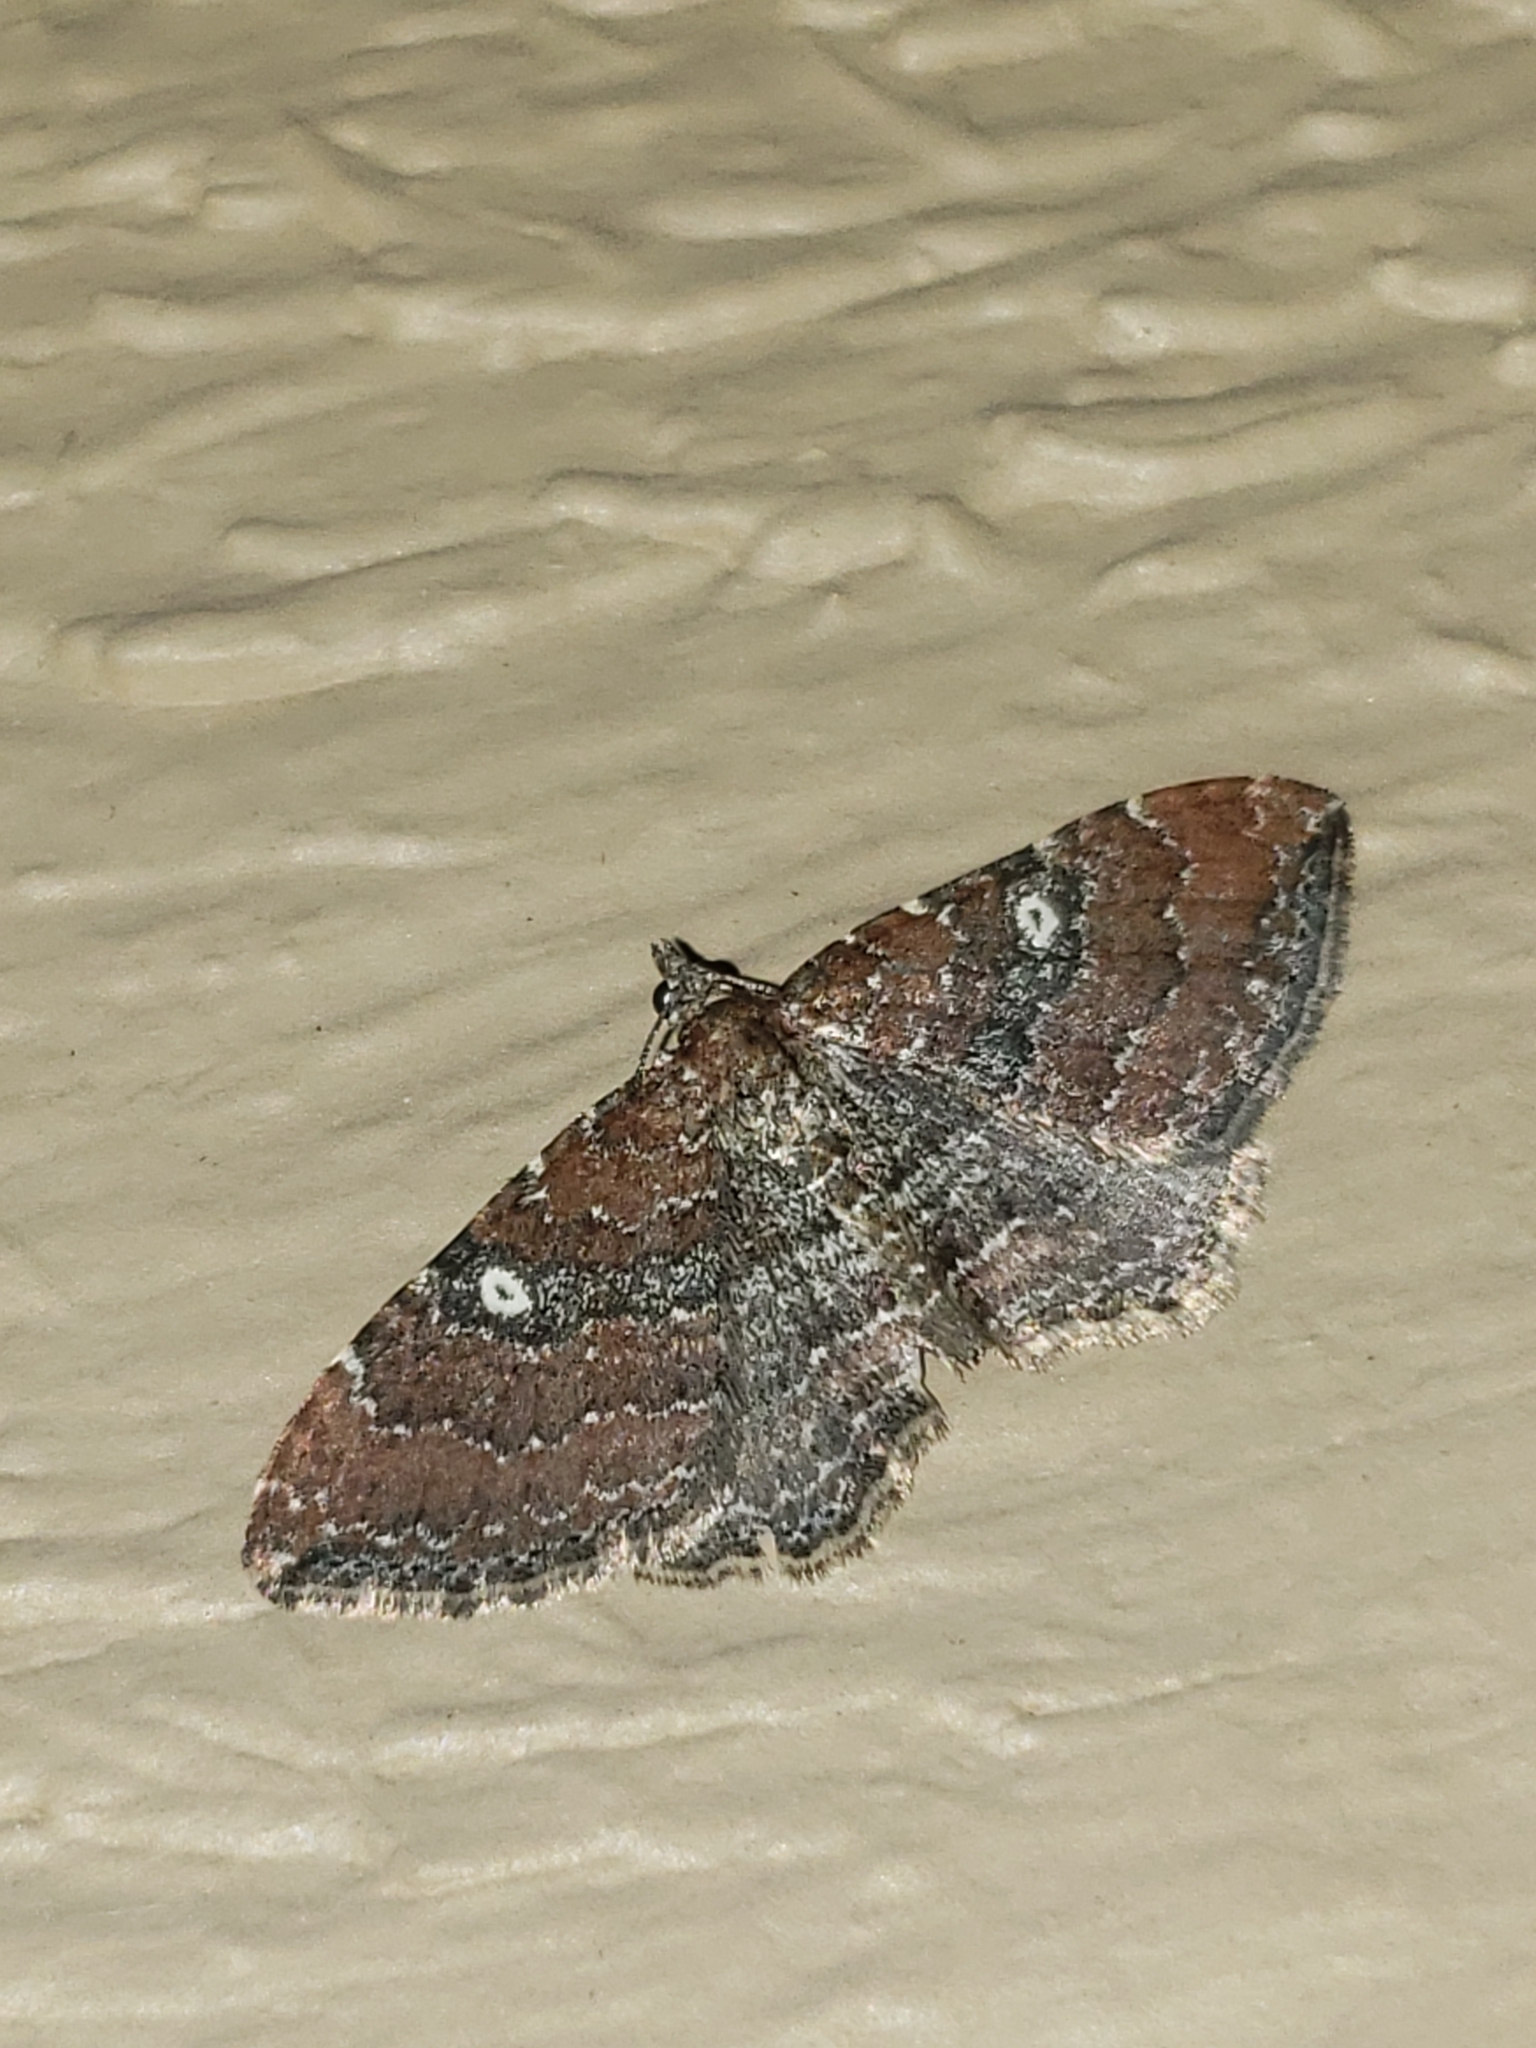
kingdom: Animalia
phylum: Arthropoda
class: Insecta
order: Lepidoptera
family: Geometridae
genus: Orthonama
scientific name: Orthonama obstipata
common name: The gem
